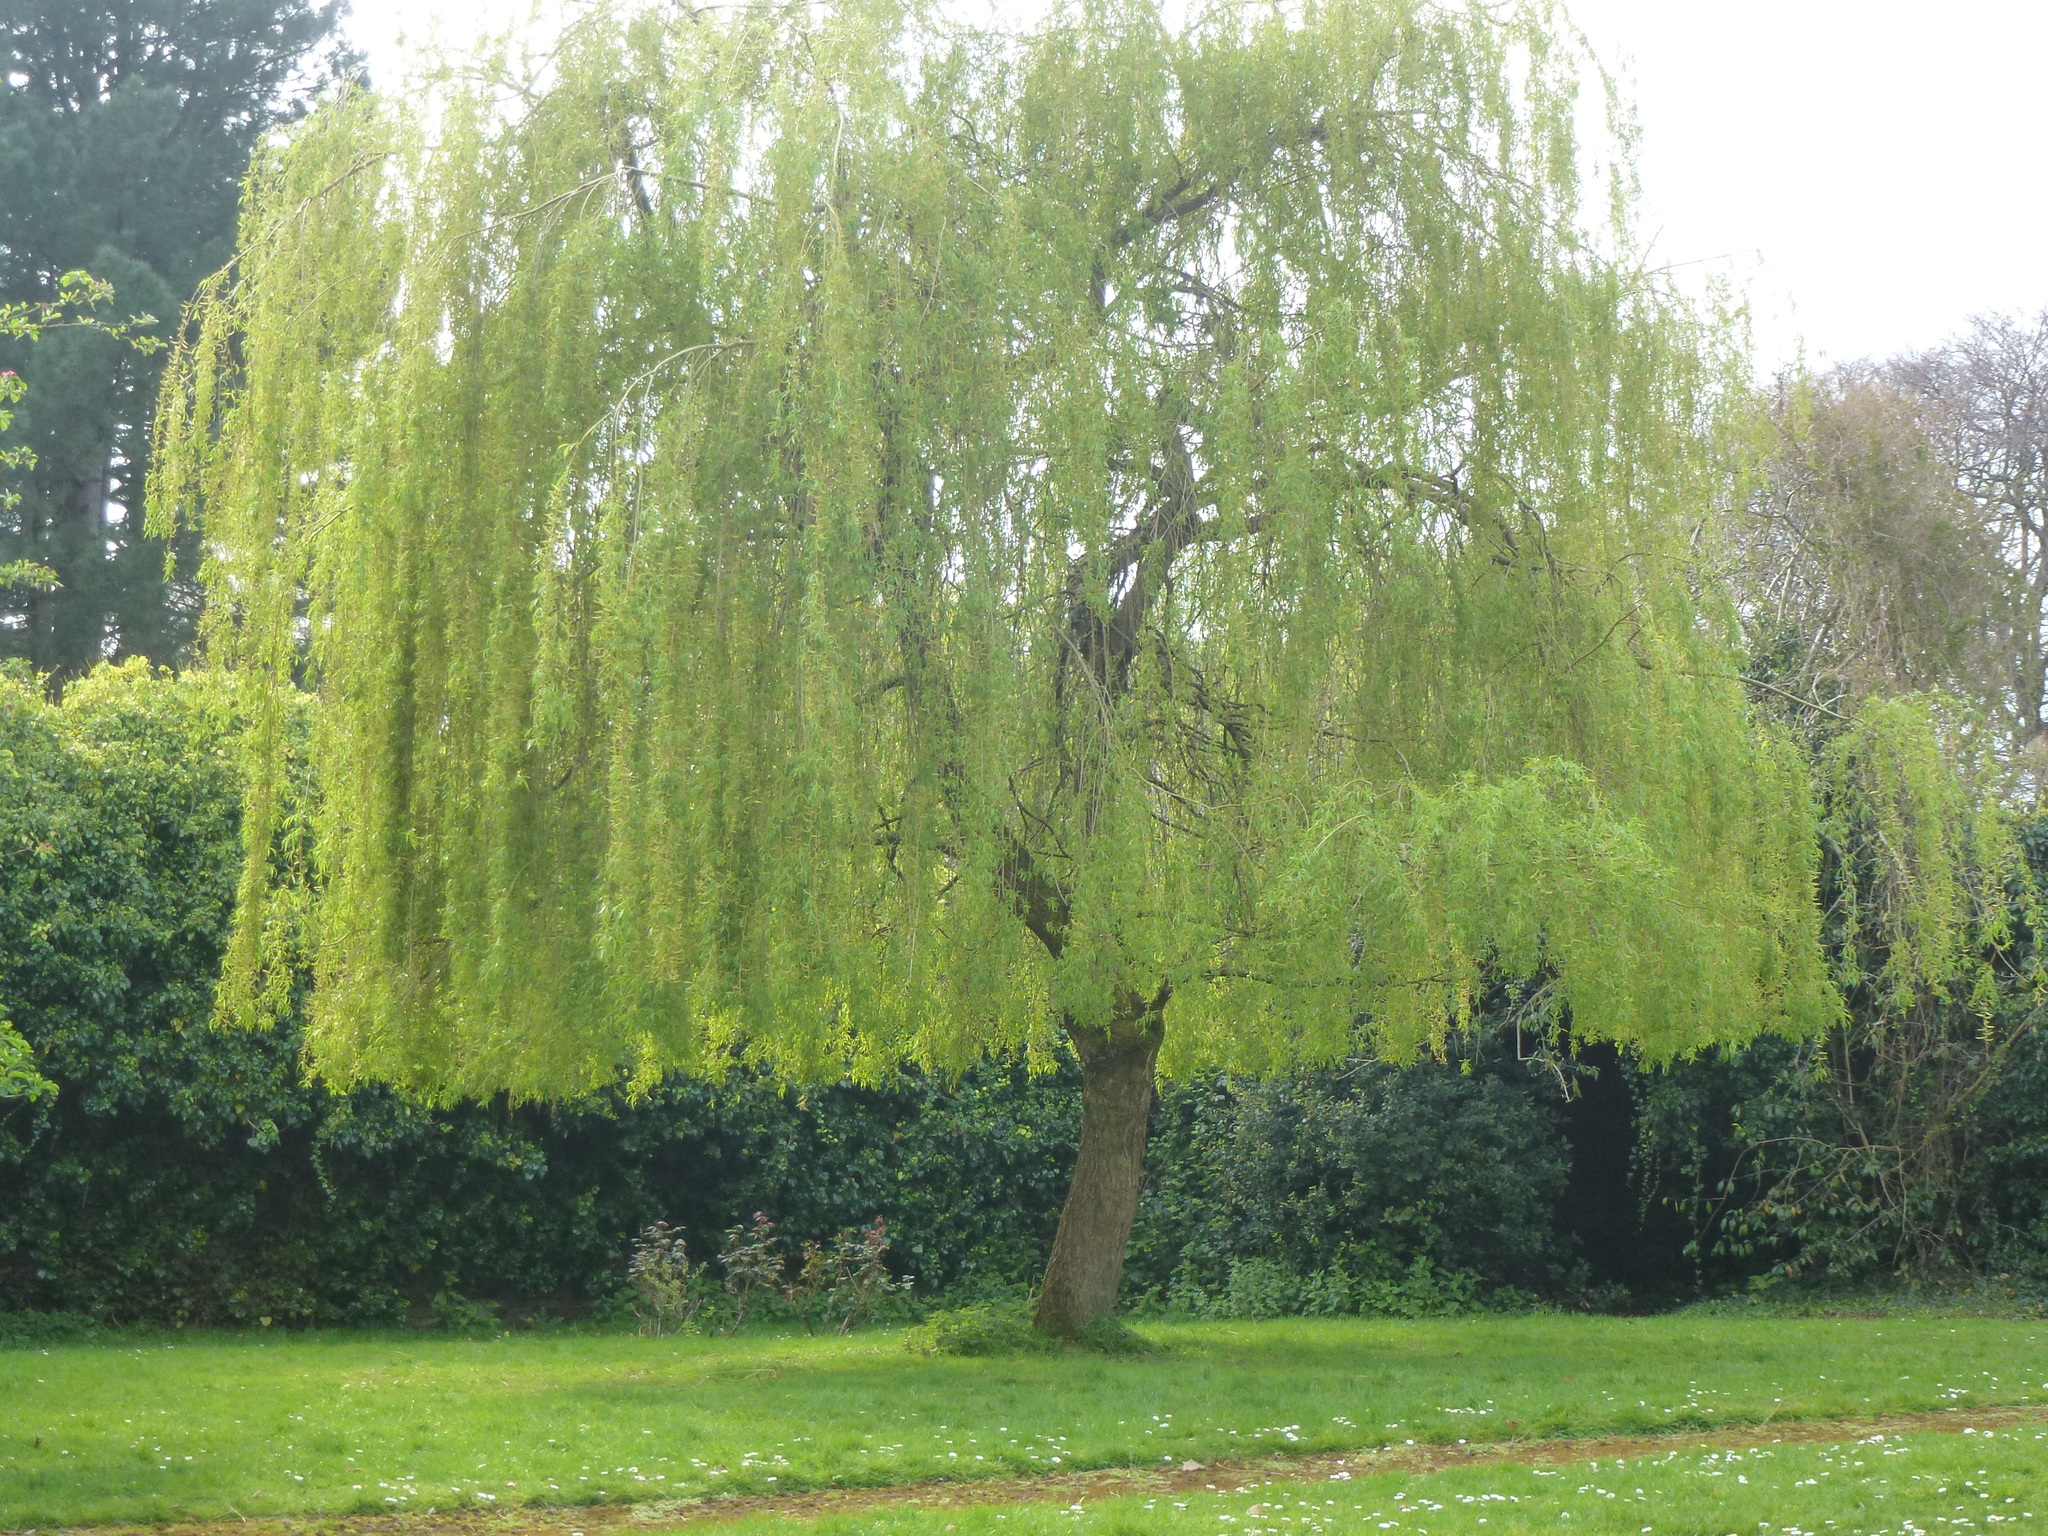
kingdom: Plantae
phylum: Tracheophyta
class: Magnoliopsida
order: Malpighiales
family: Salicaceae
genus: Salix
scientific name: Salix pendulina
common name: Wisconsin weeping willow
